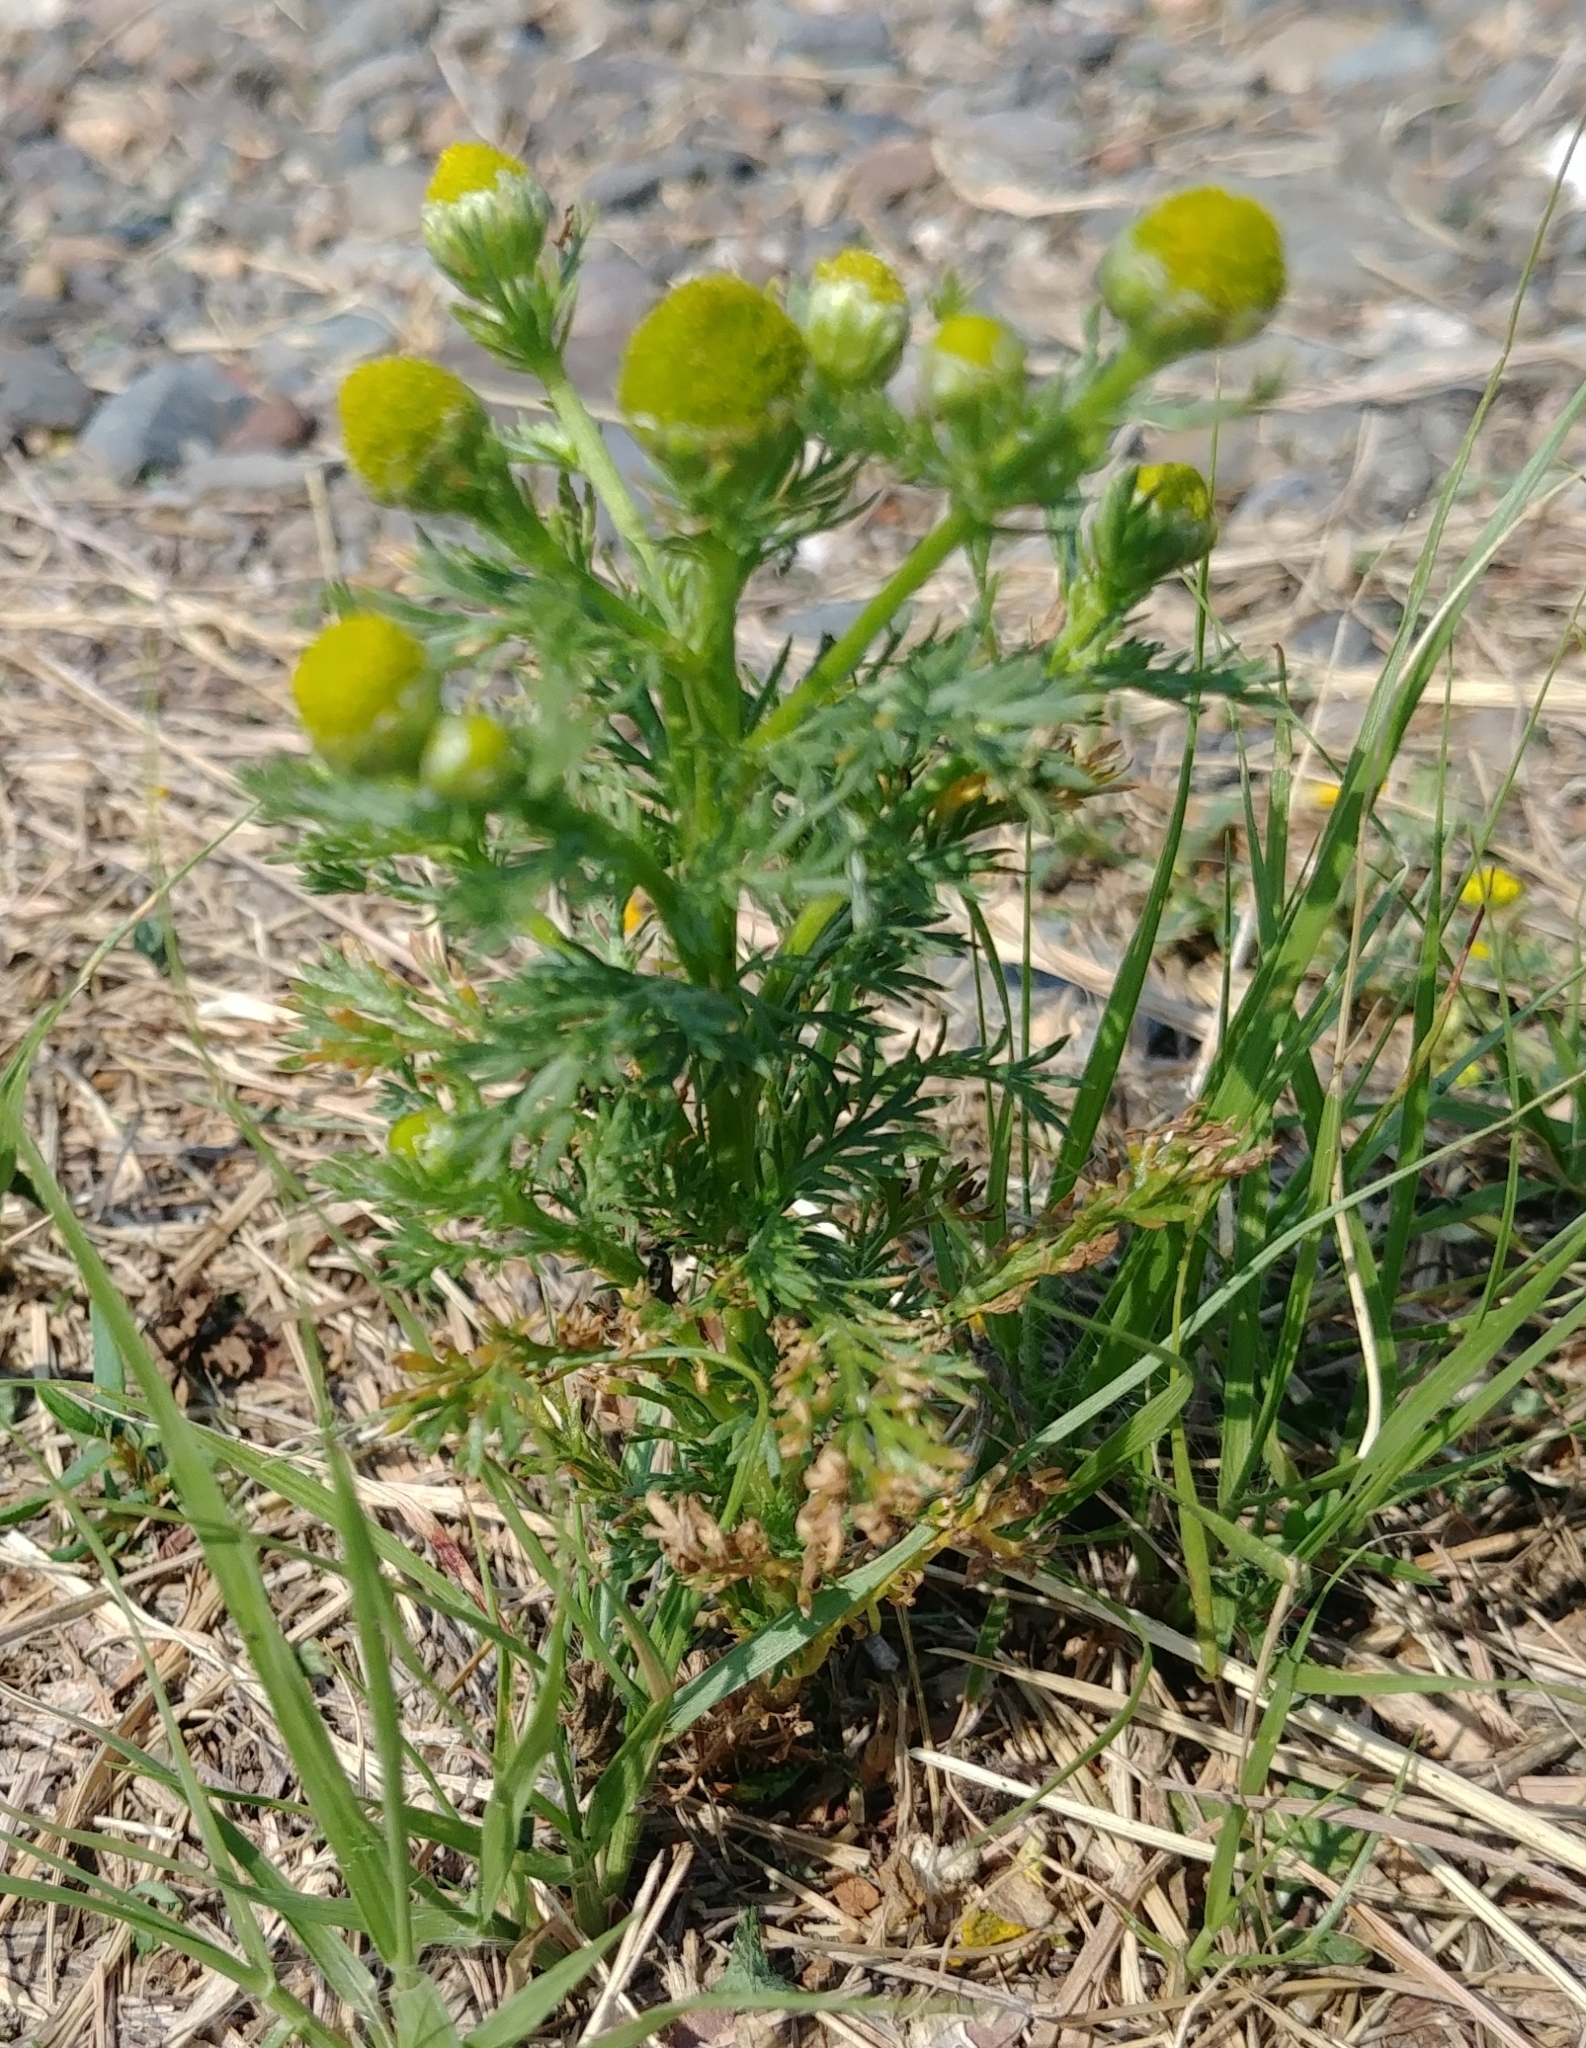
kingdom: Plantae
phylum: Tracheophyta
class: Magnoliopsida
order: Asterales
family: Asteraceae
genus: Matricaria
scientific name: Matricaria discoidea
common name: Disc mayweed
